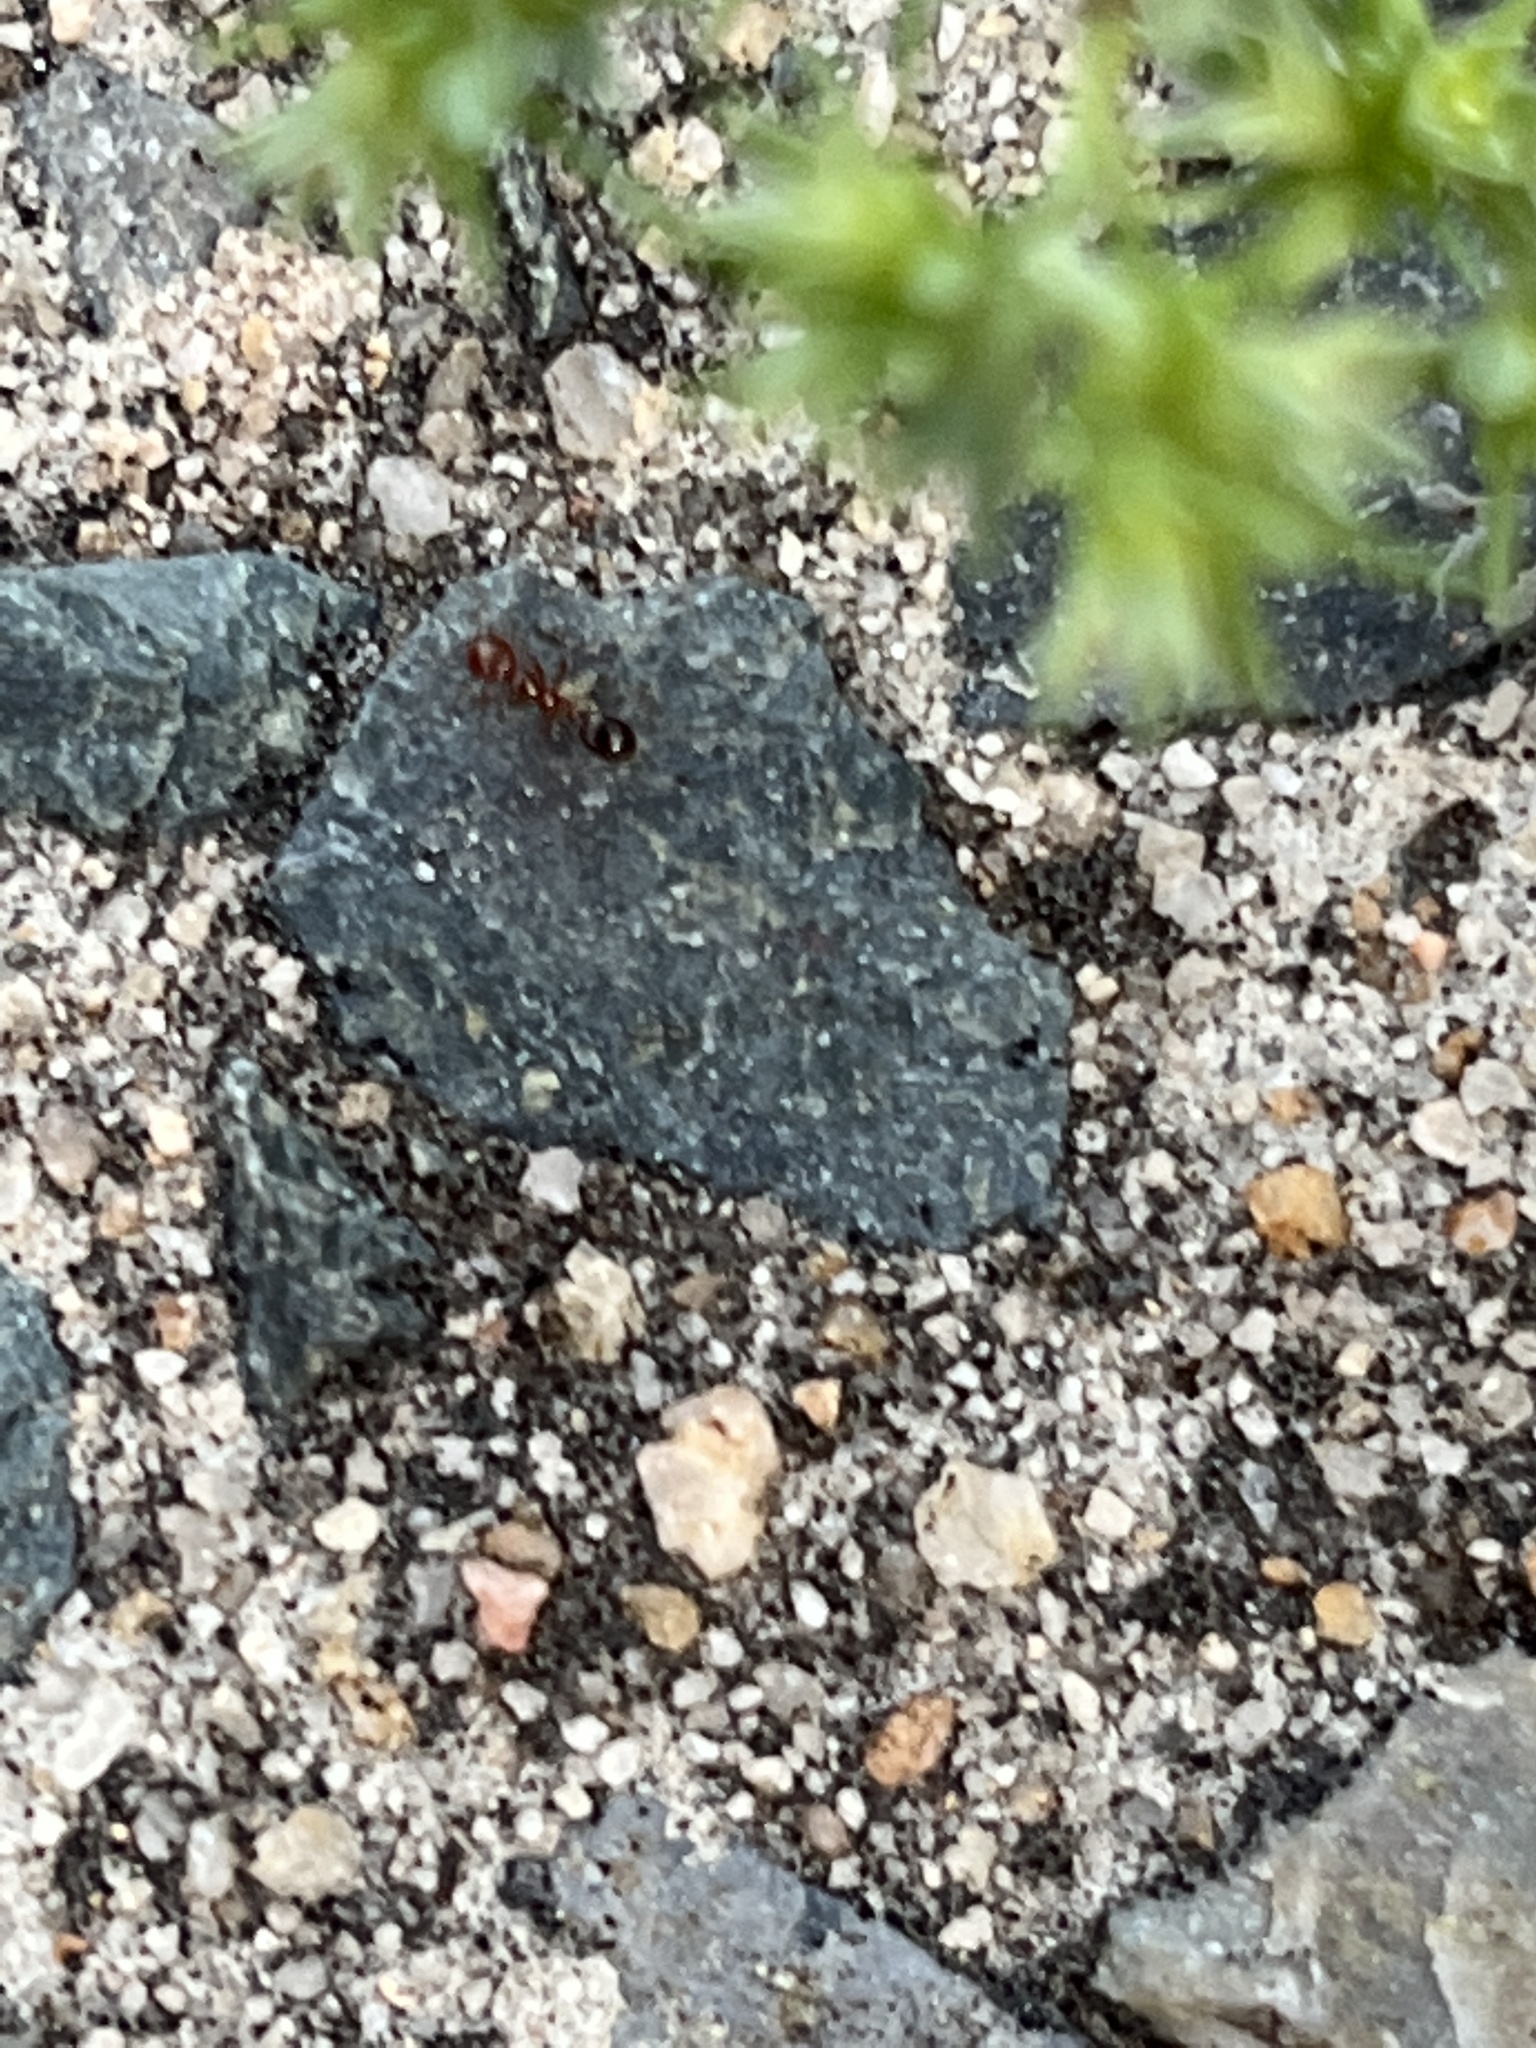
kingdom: Animalia
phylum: Arthropoda
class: Insecta
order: Hymenoptera
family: Formicidae
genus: Solenopsis
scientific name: Solenopsis invicta
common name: Red imported fire ant
